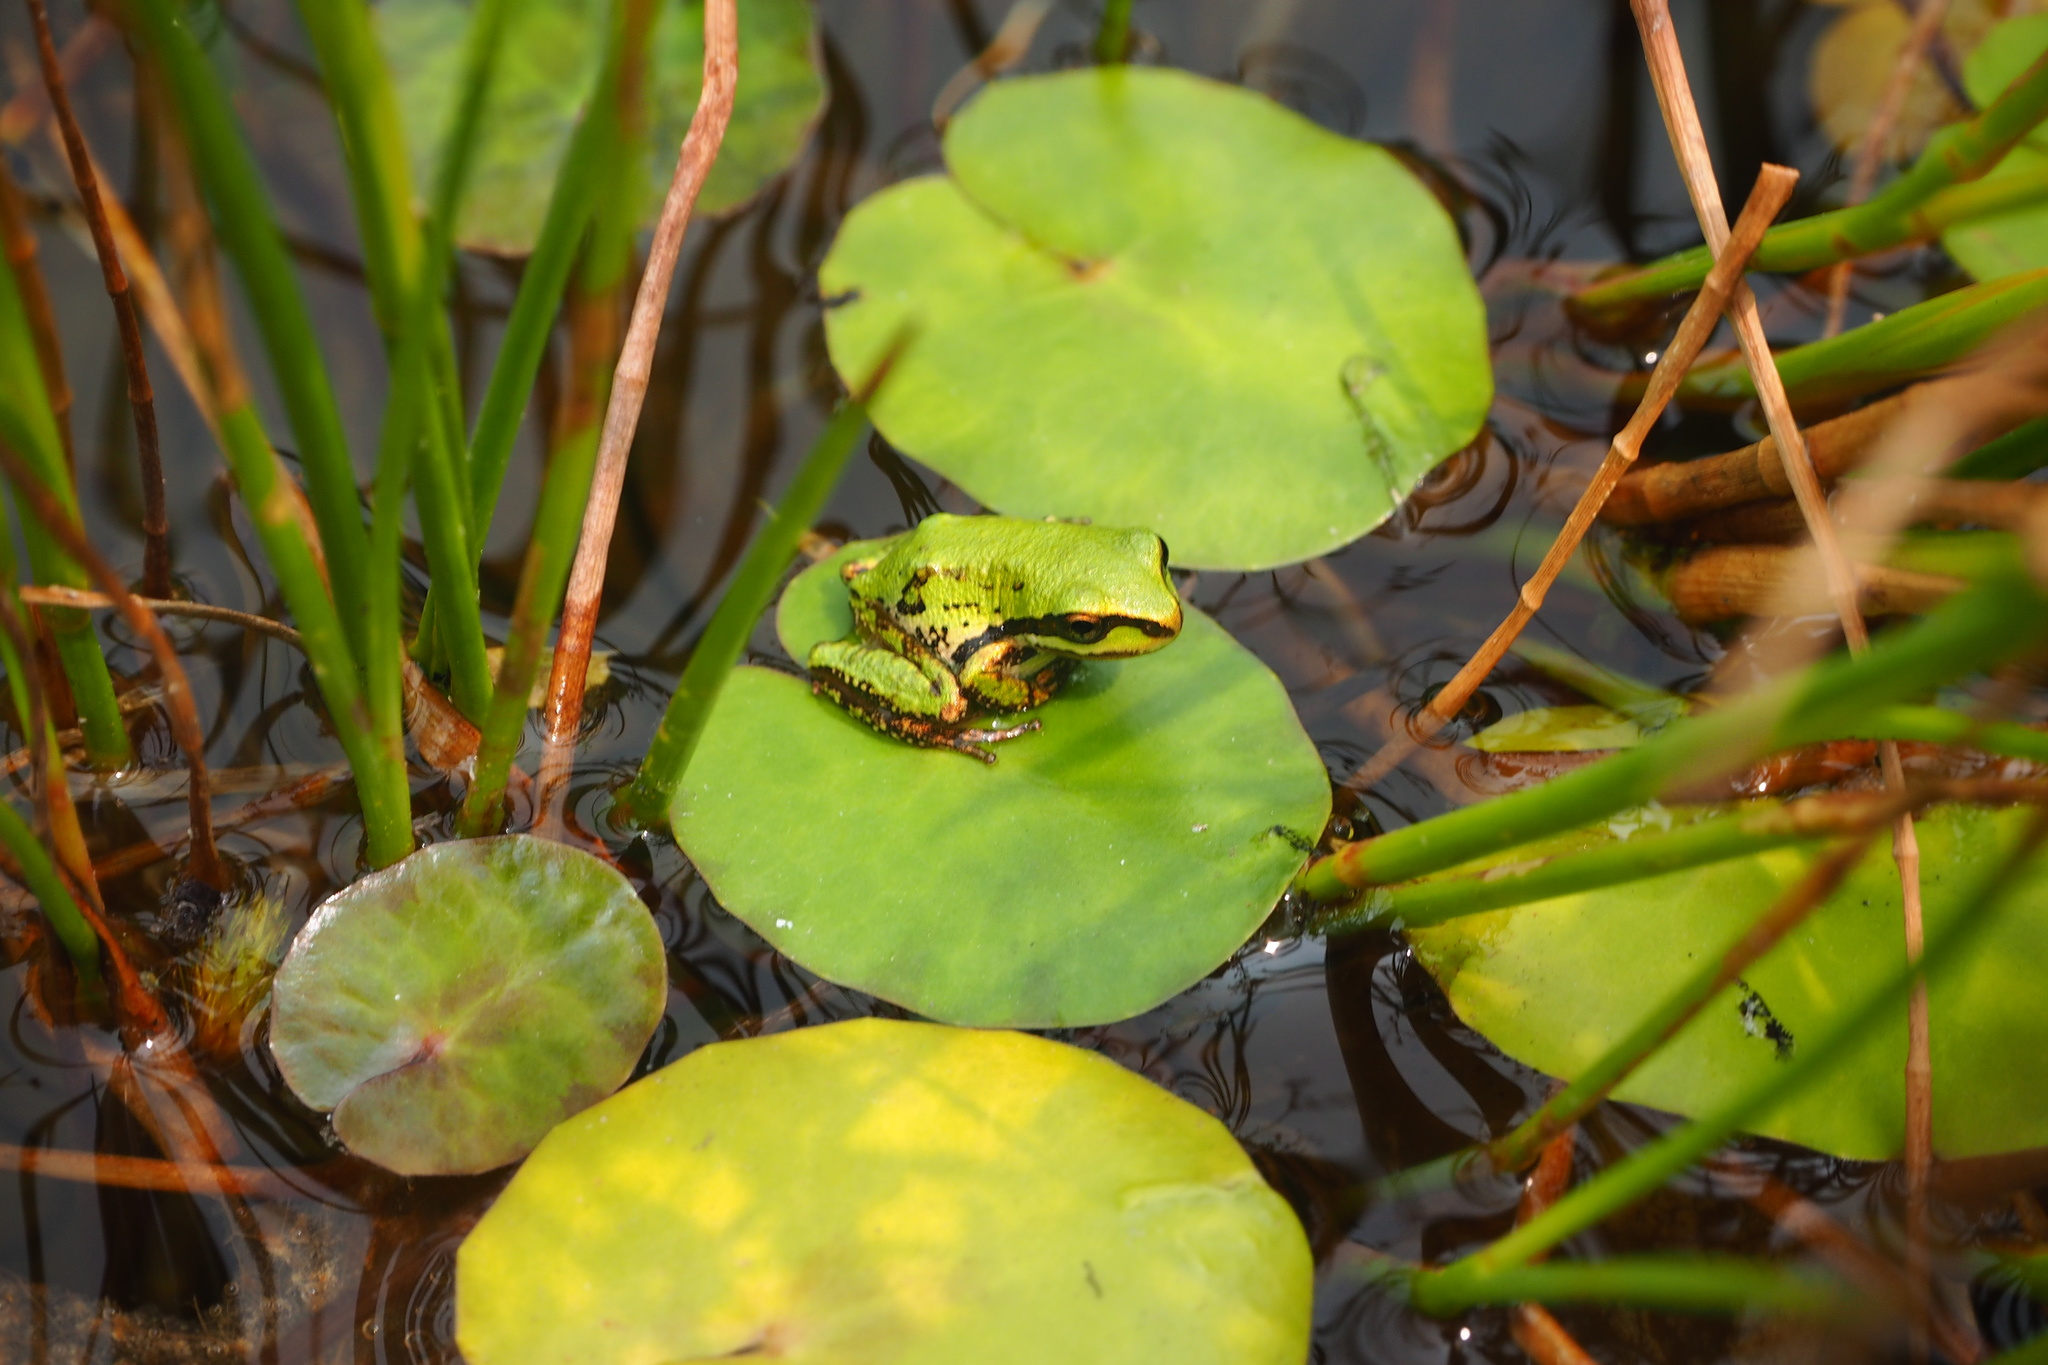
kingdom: Animalia
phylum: Chordata
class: Amphibia
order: Anura
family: Hylidae
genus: Pseudacris
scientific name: Pseudacris regilla
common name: Pacific chorus frog
